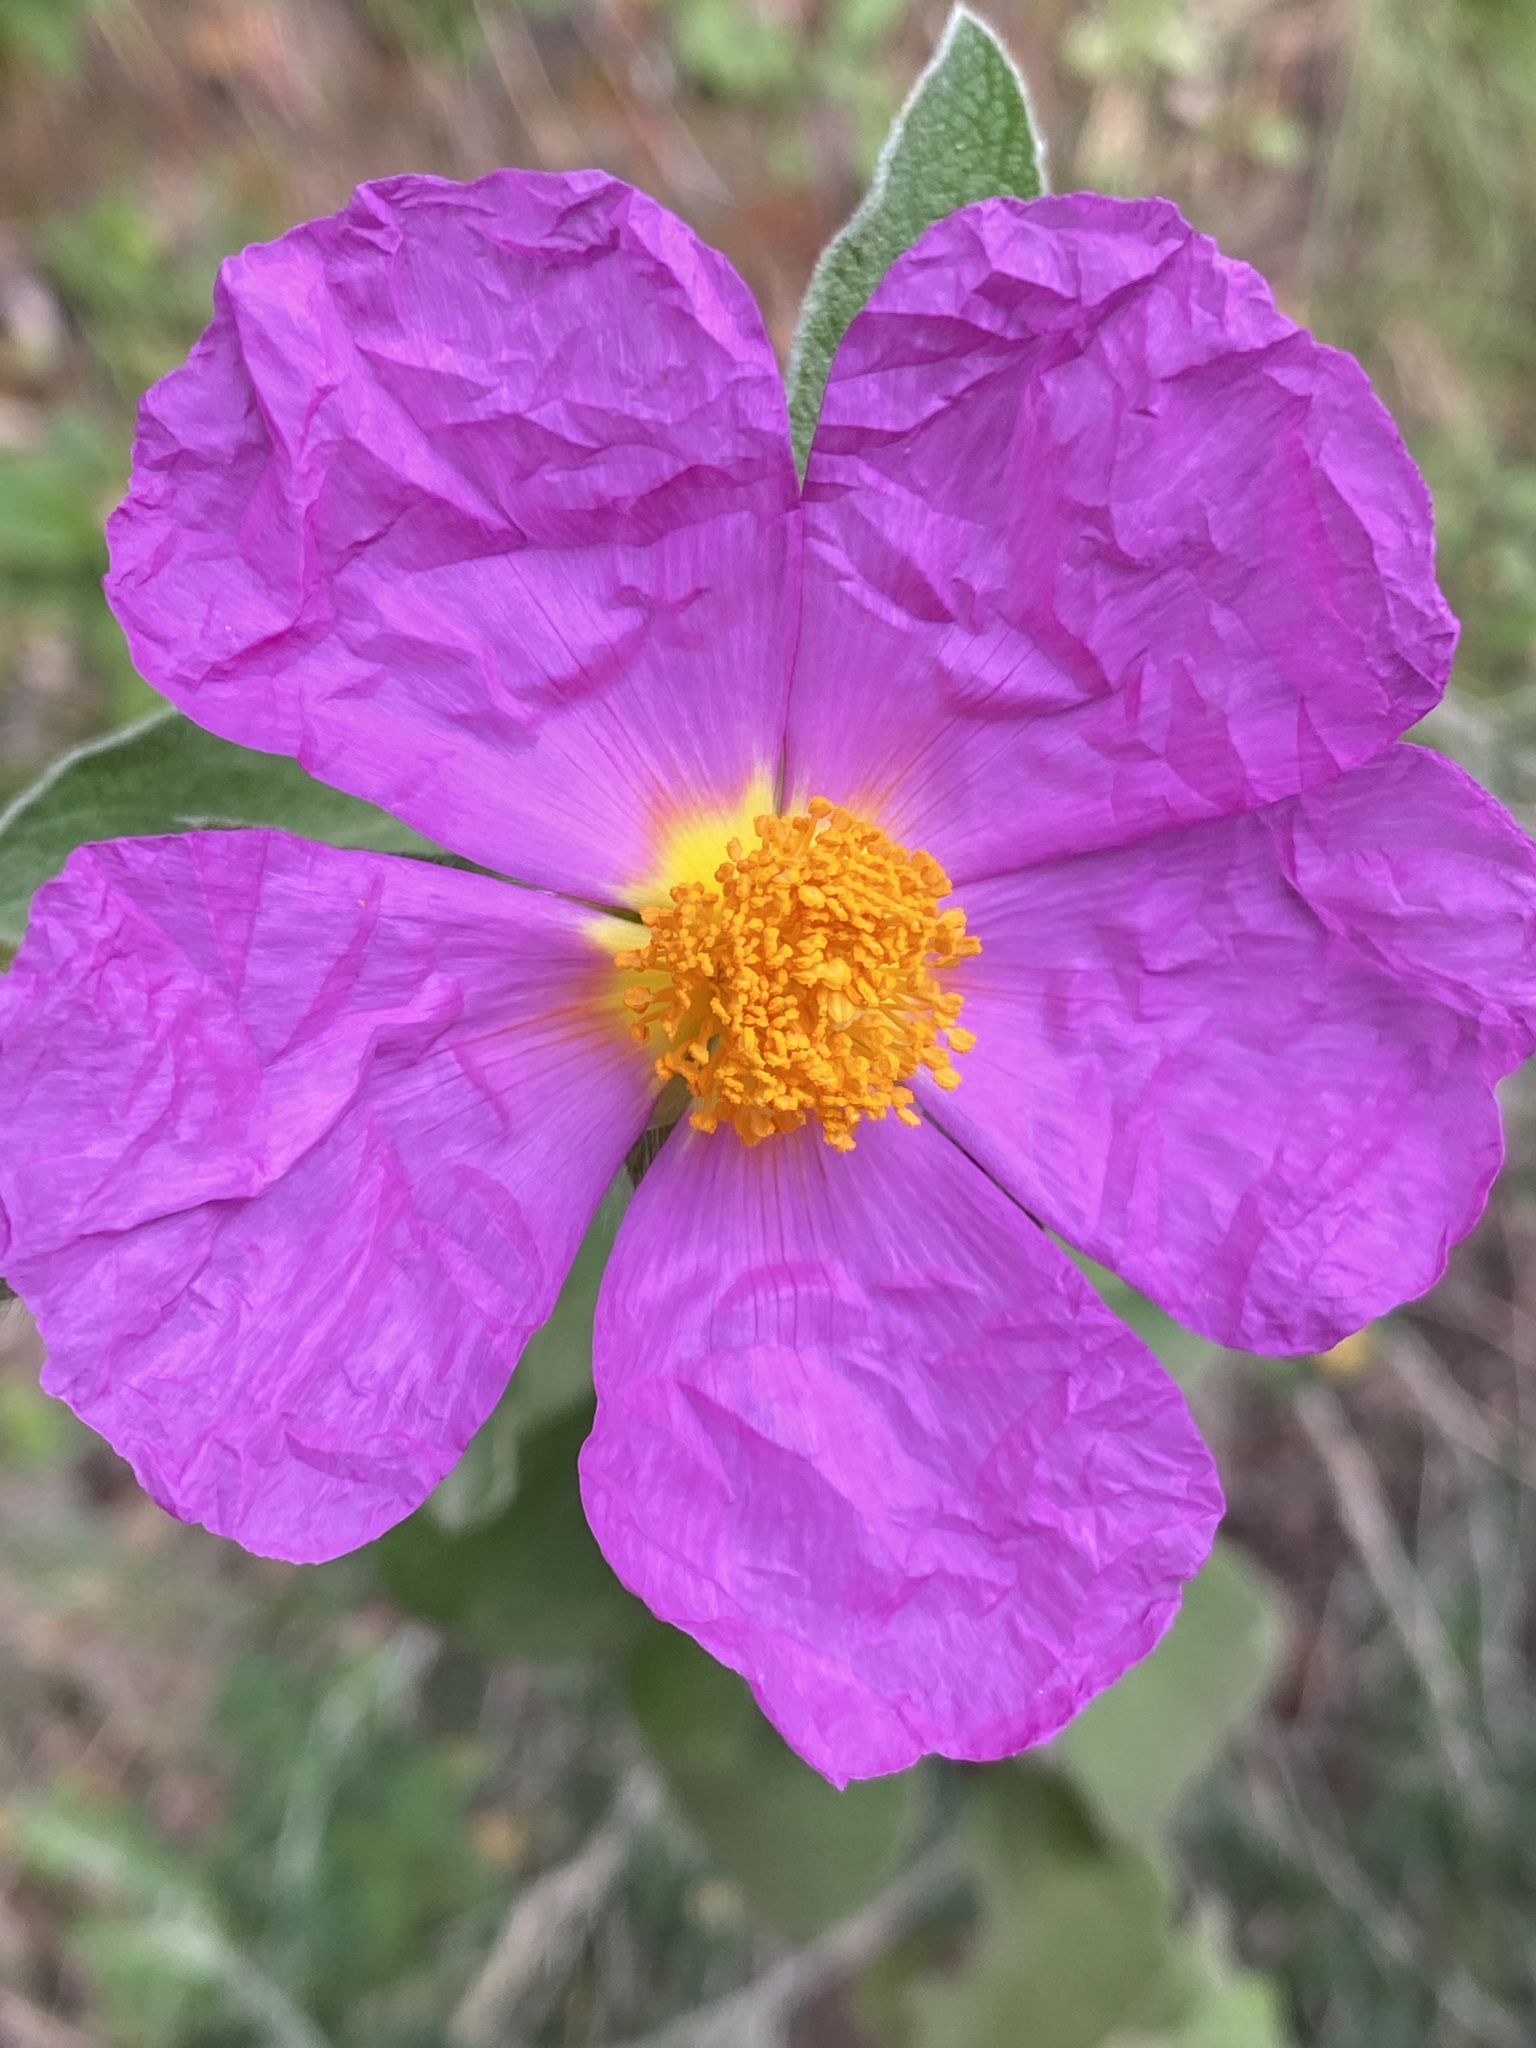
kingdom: Plantae
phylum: Tracheophyta
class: Magnoliopsida
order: Malvales
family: Cistaceae
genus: Cistus
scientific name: Cistus creticus
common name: Cretan rockrose
